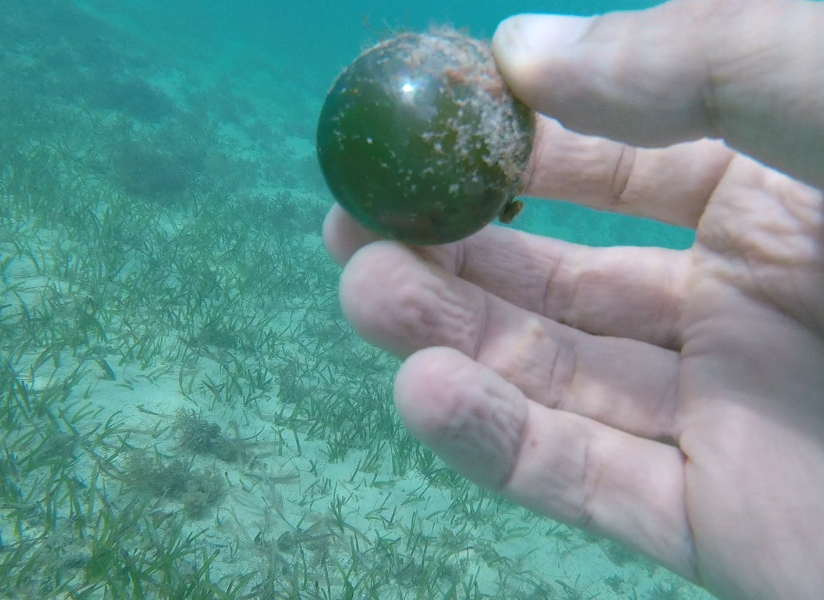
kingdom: Plantae
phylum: Chlorophyta
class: Ulvophyceae
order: Siphonocladales
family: Valoniaceae
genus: Valonia
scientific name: Valonia ventricosa
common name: Sea pearl
